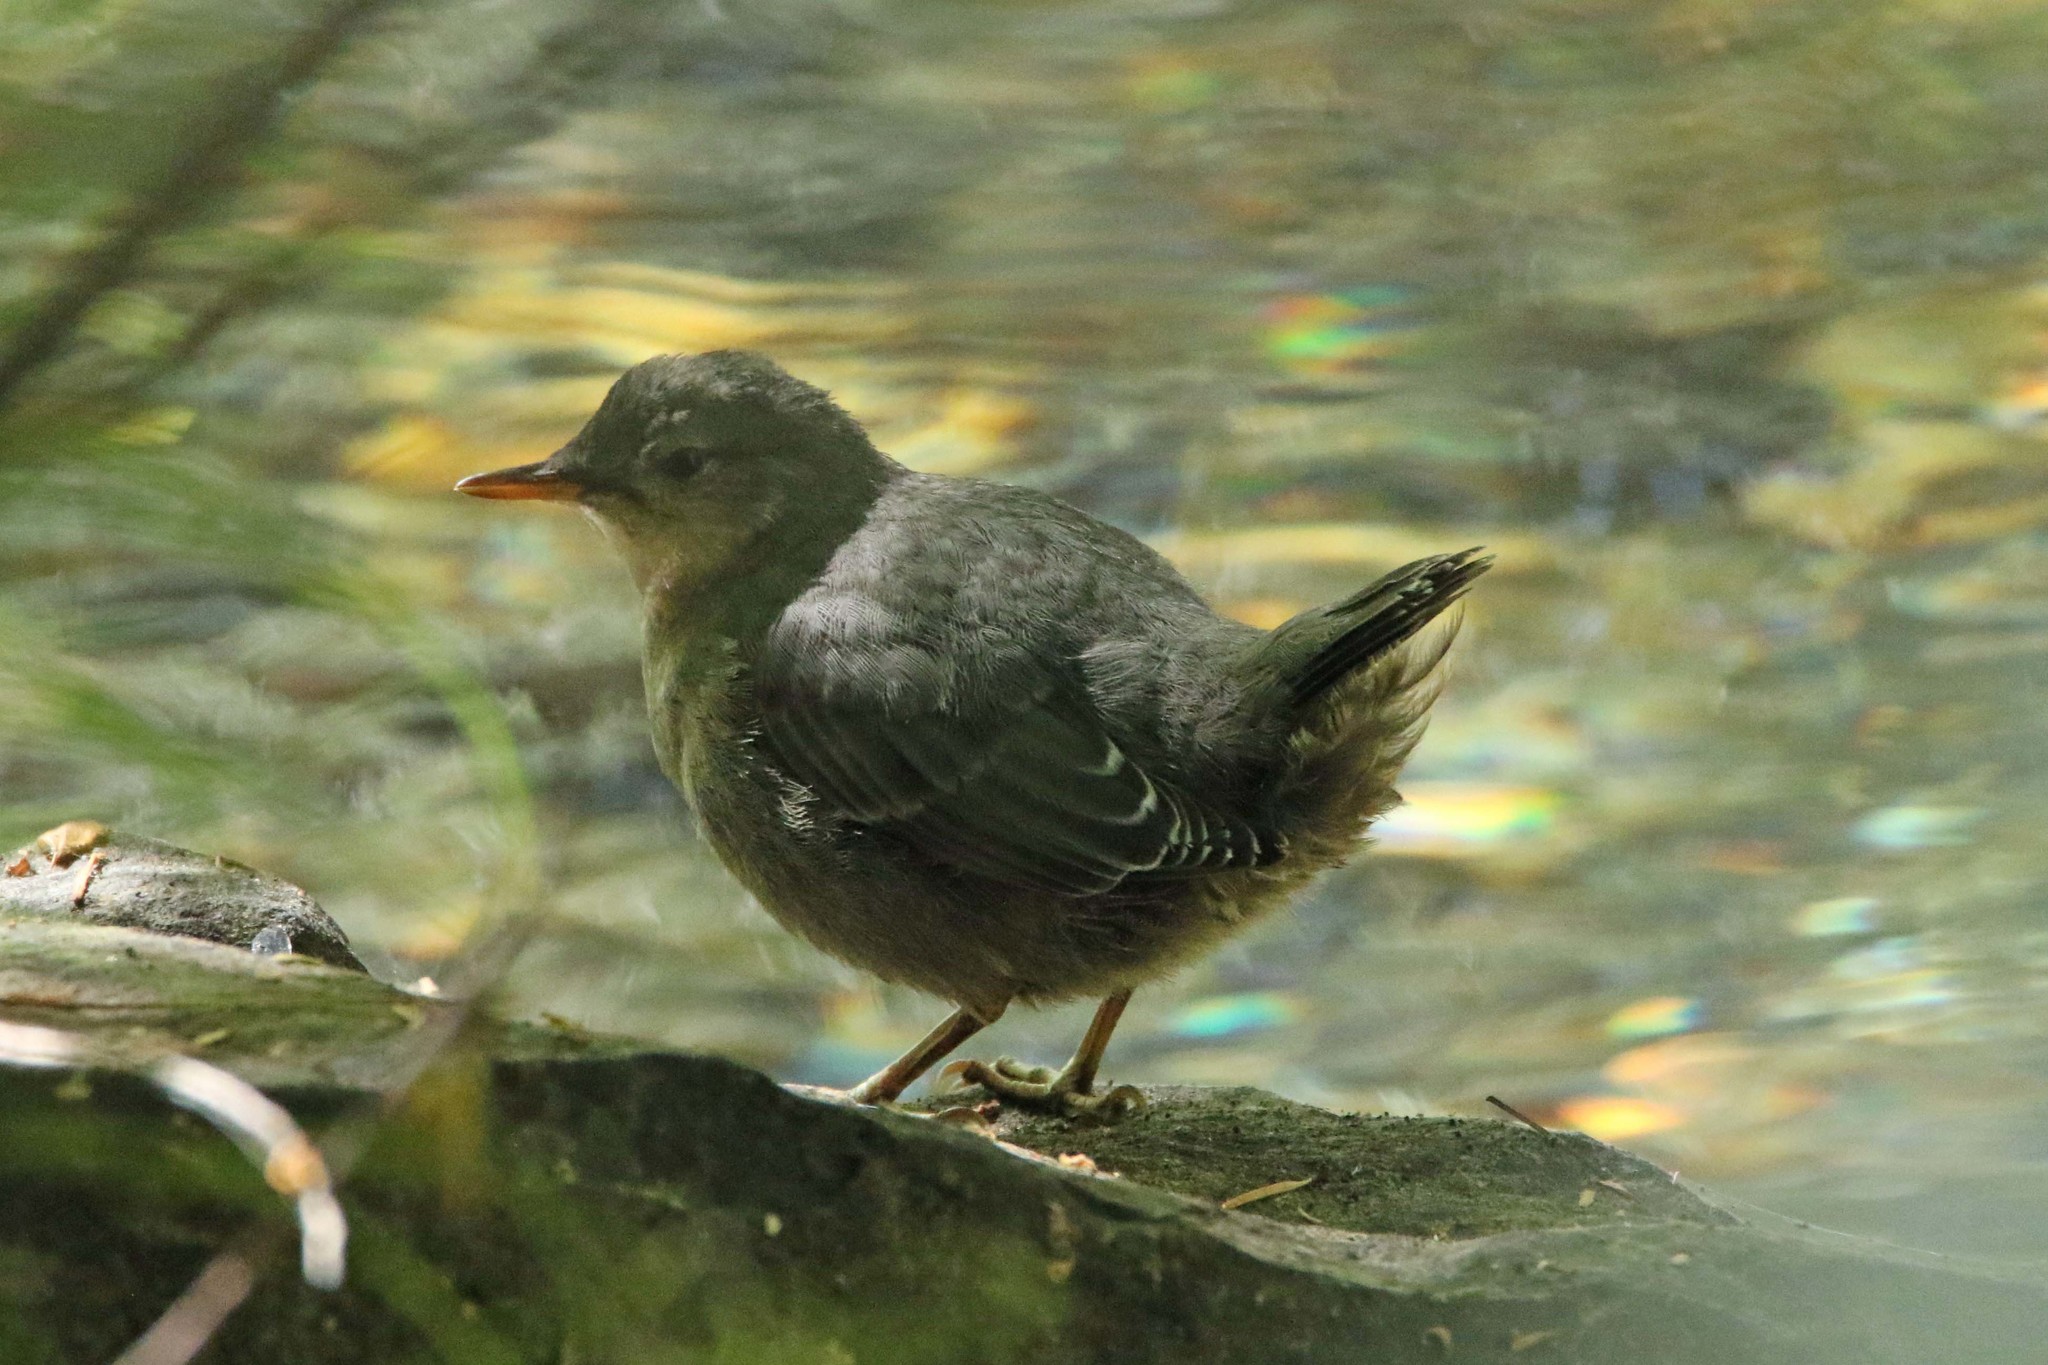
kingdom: Animalia
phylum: Chordata
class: Aves
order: Passeriformes
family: Cinclidae
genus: Cinclus
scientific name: Cinclus mexicanus
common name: American dipper
